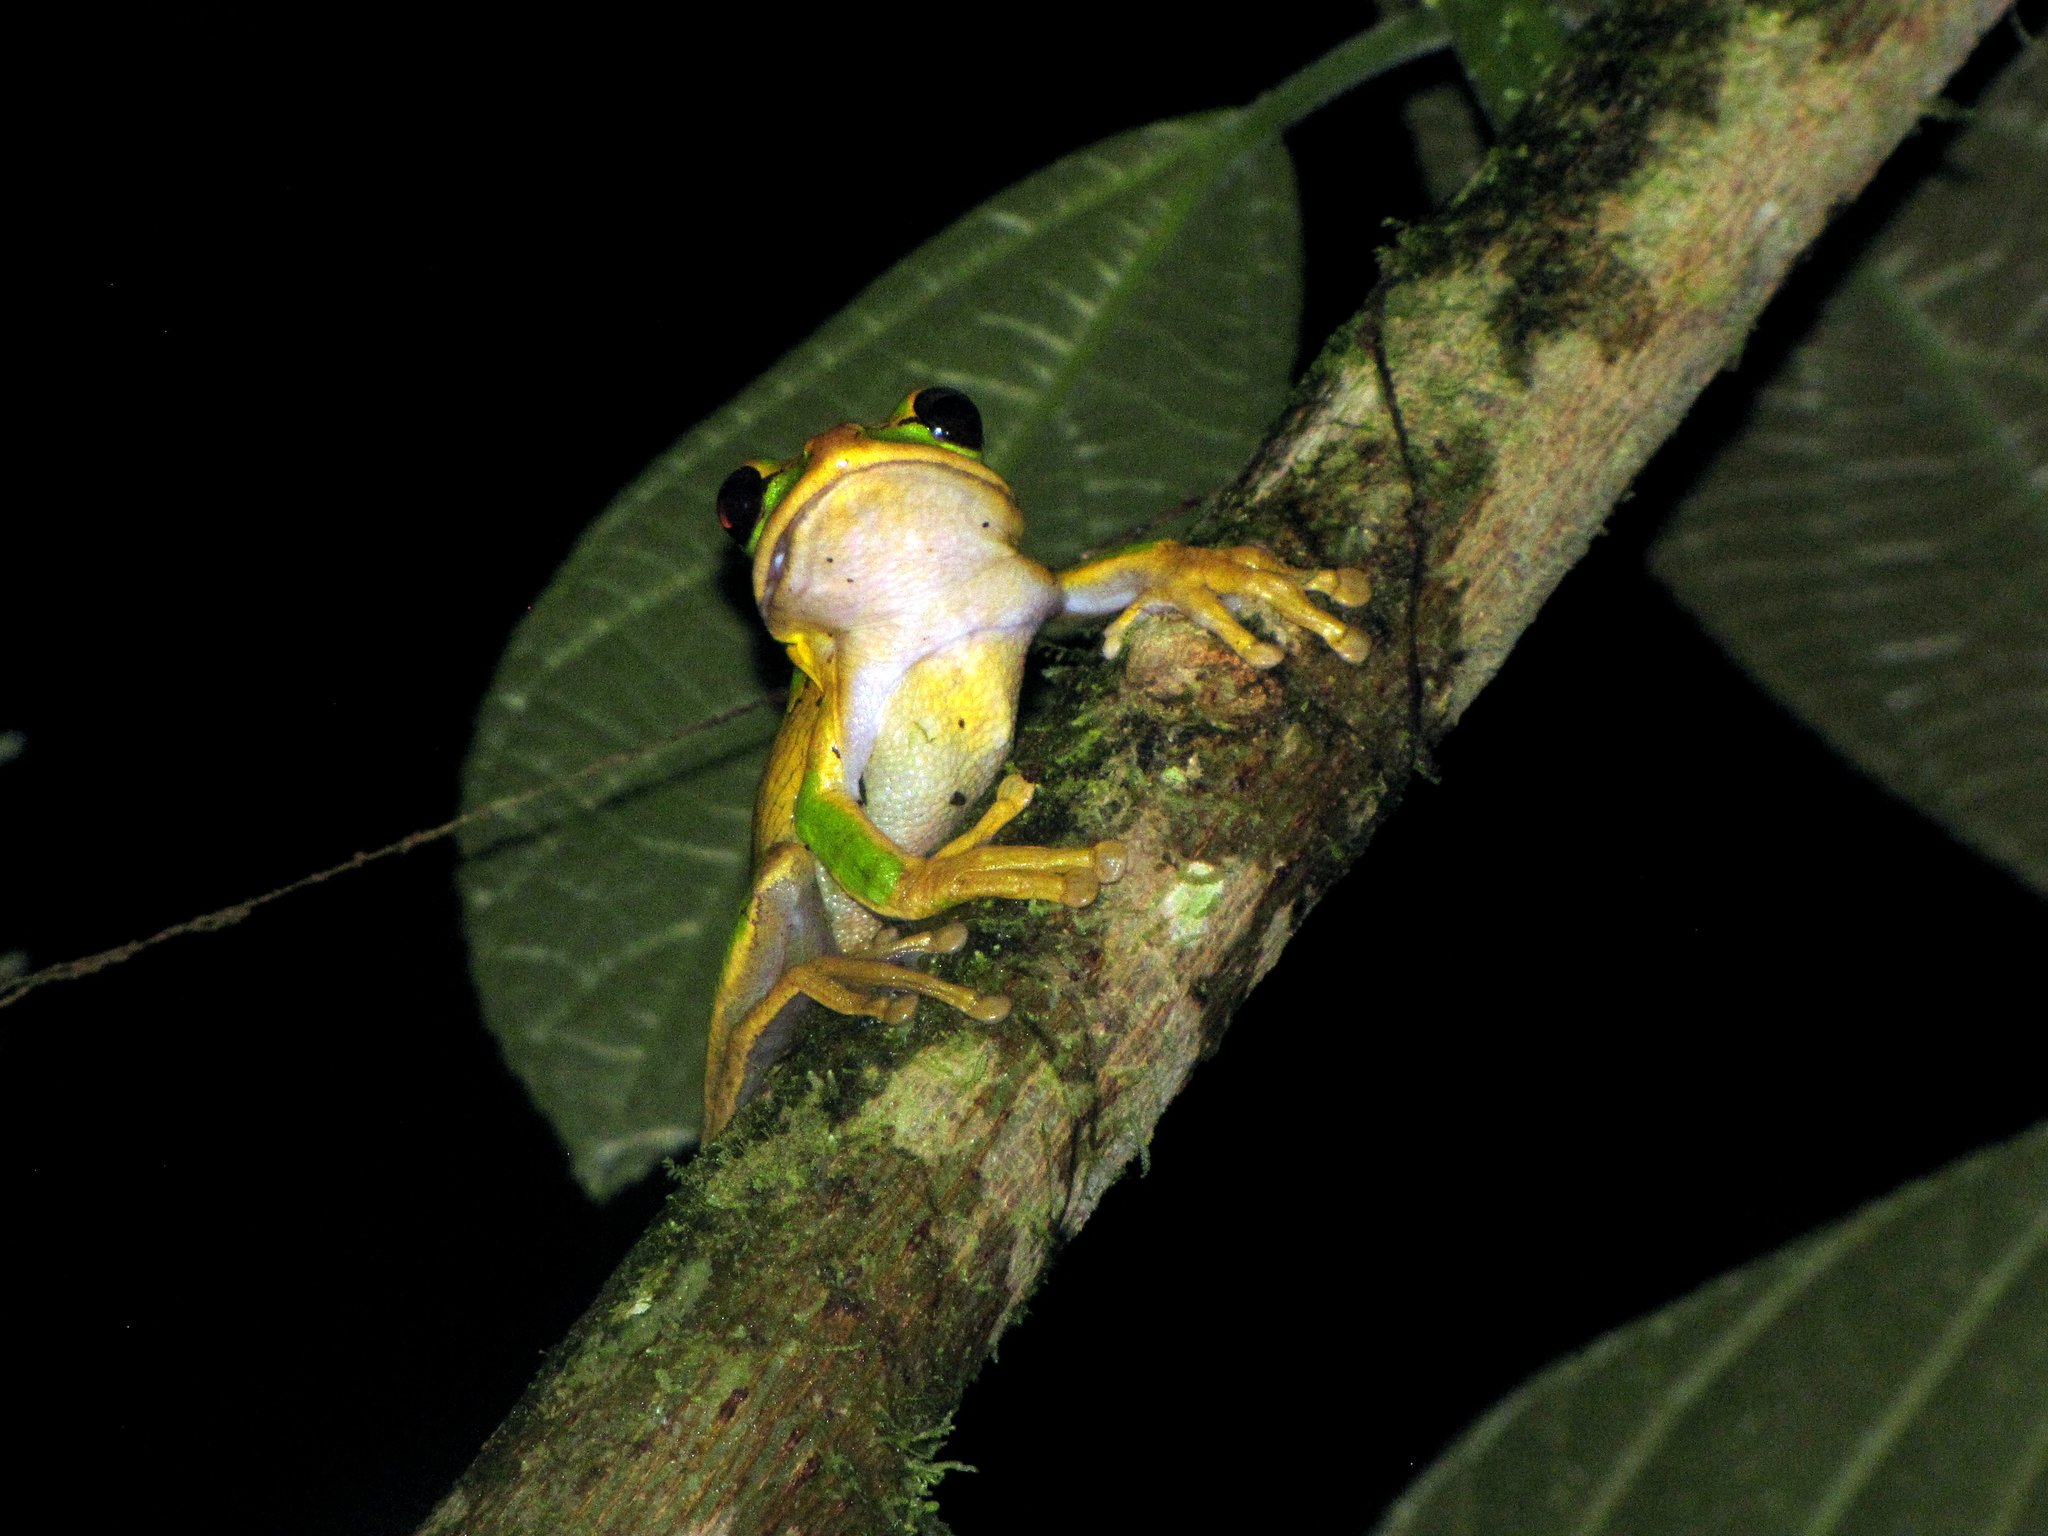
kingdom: Animalia
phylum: Chordata
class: Amphibia
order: Anura
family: Hylidae
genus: Smilisca
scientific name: Smilisca phaeota
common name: Central american smilisca
